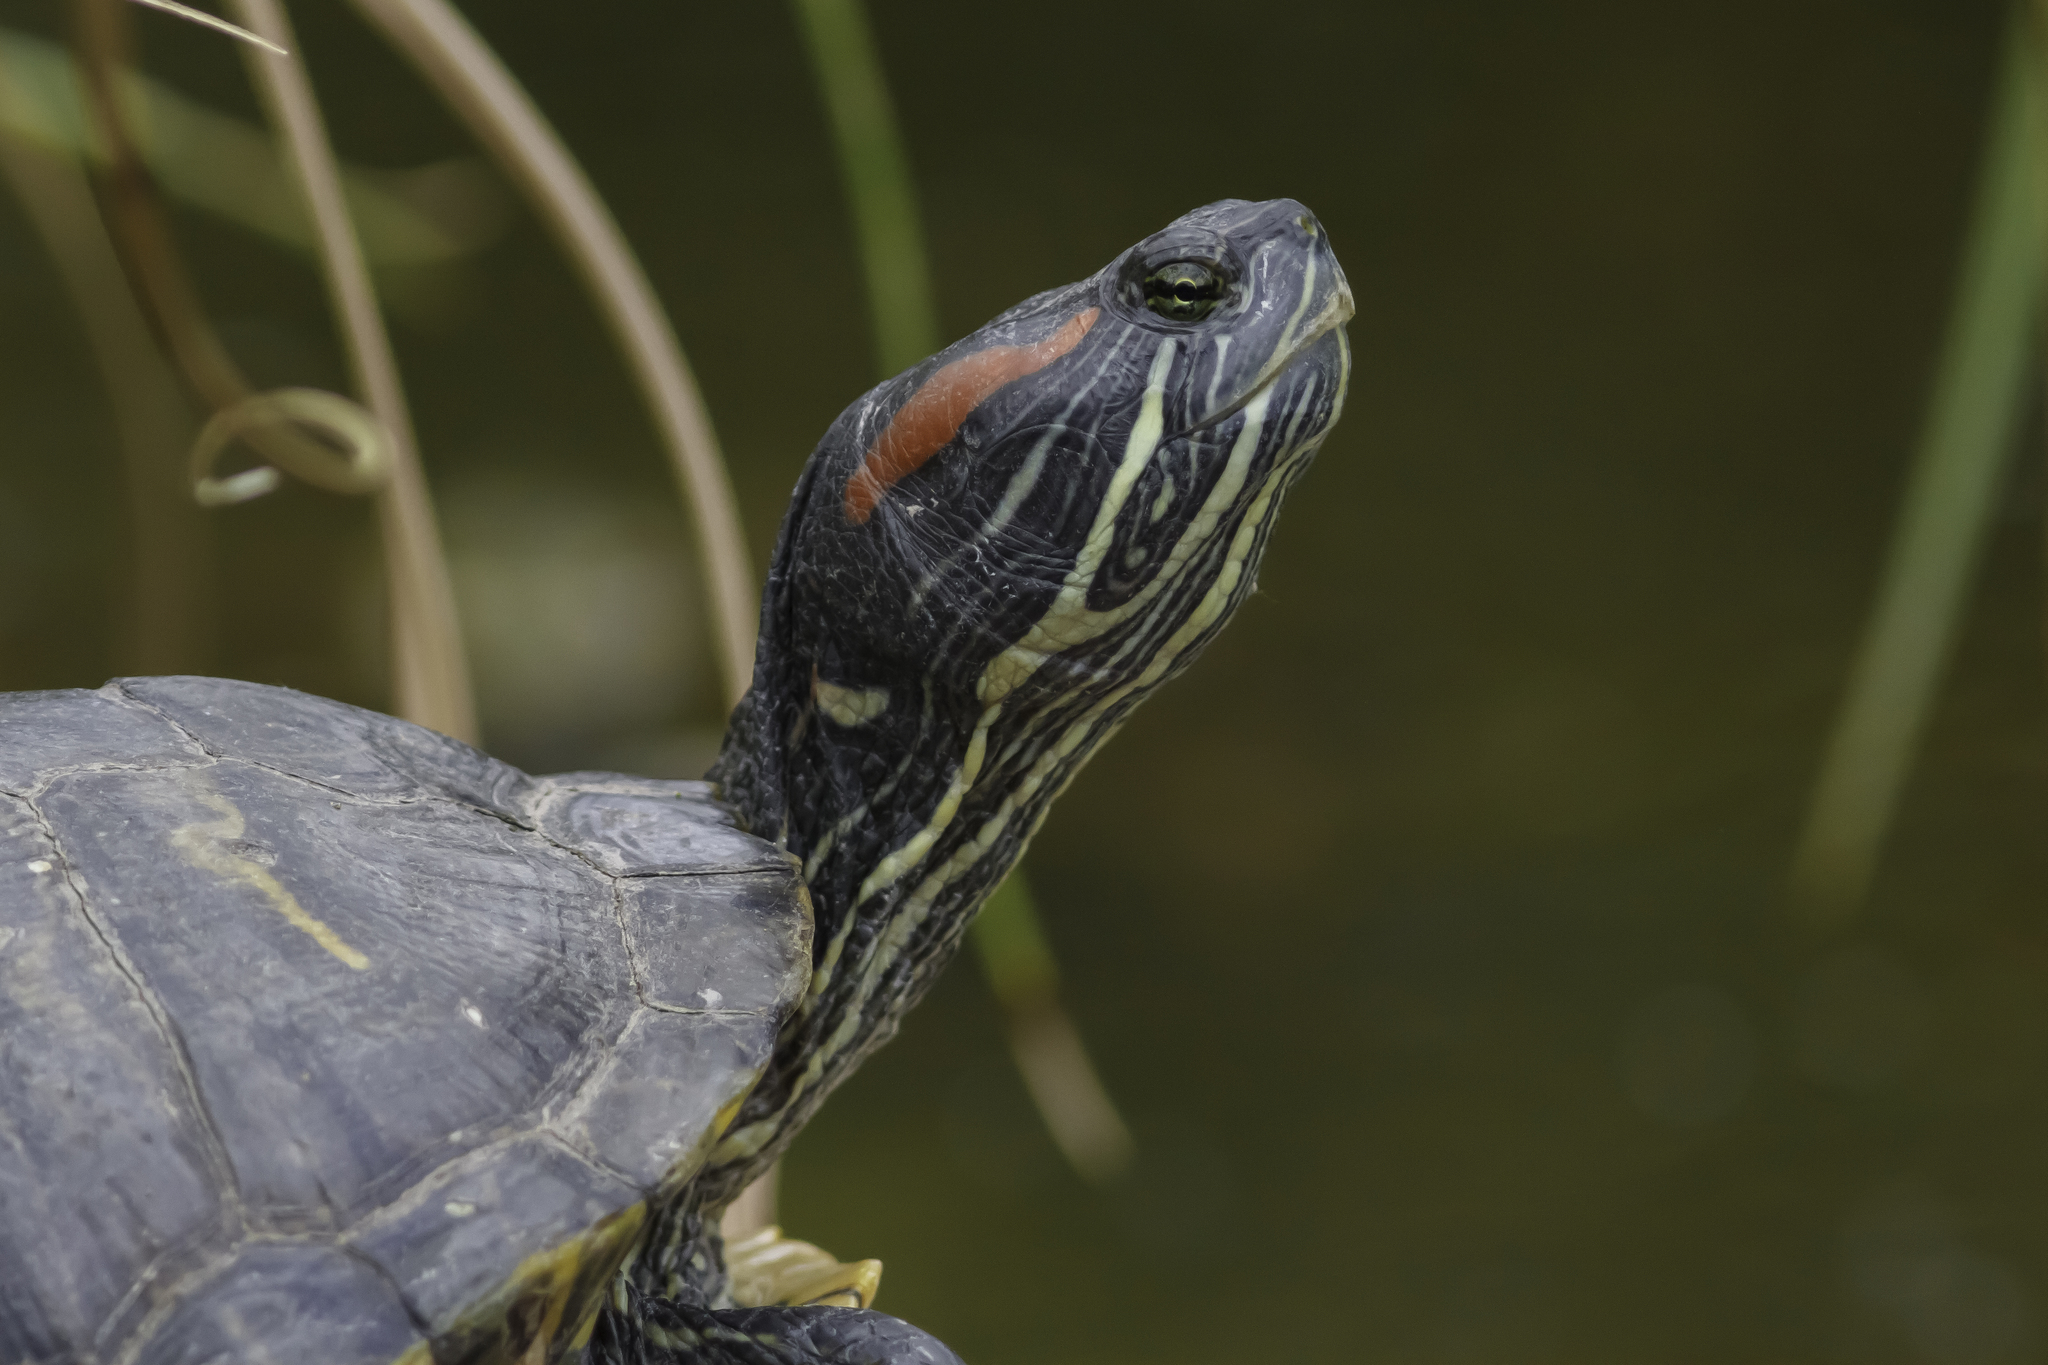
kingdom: Animalia
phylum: Chordata
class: Testudines
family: Emydidae
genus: Trachemys
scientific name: Trachemys scripta
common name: Slider
